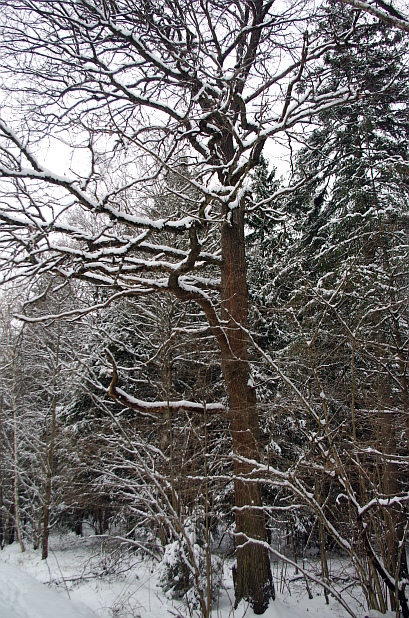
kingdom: Plantae
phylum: Tracheophyta
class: Magnoliopsida
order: Fagales
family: Fagaceae
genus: Quercus
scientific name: Quercus robur
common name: Pedunculate oak
